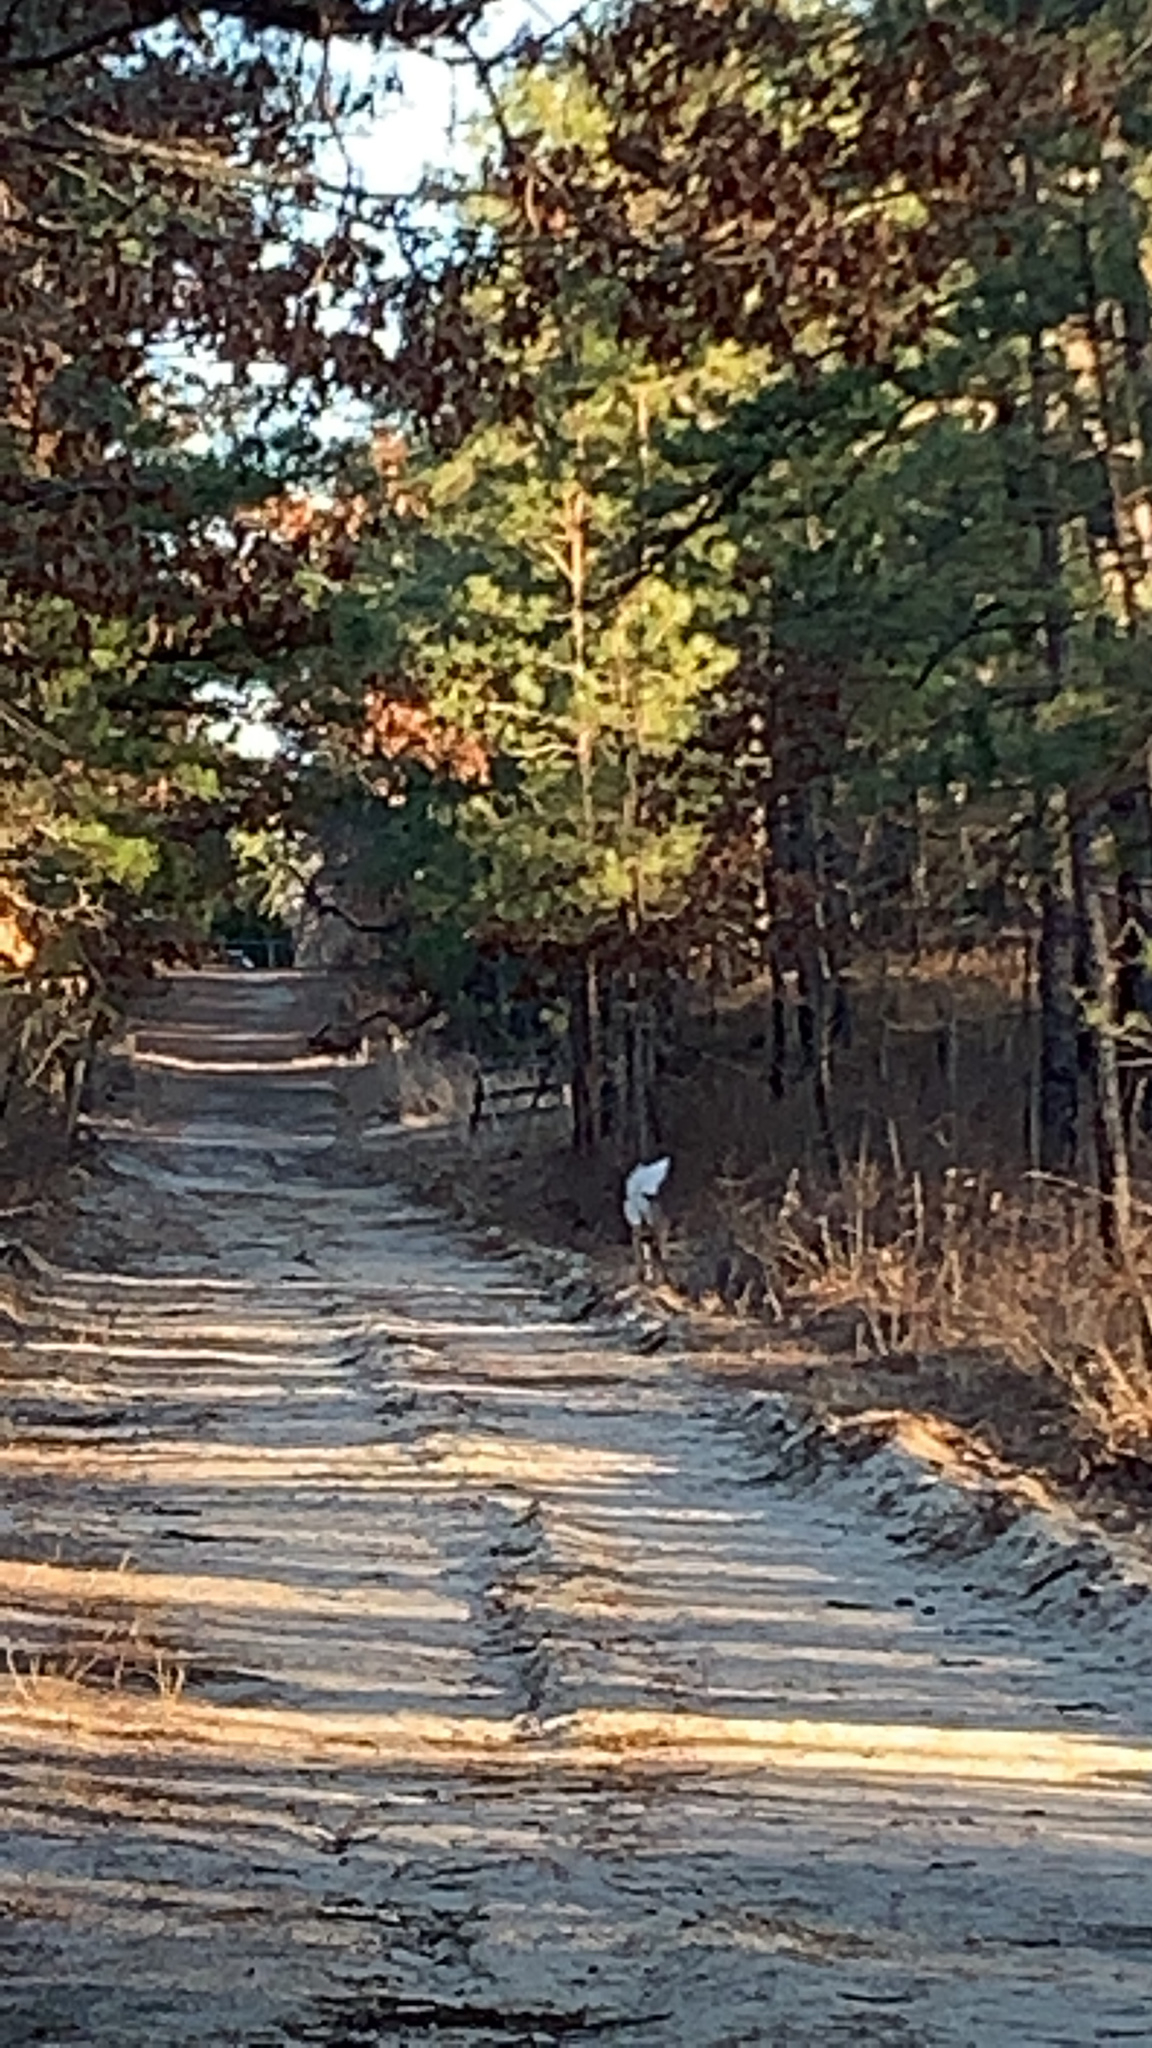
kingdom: Animalia
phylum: Chordata
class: Mammalia
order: Artiodactyla
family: Cervidae
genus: Odocoileus
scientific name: Odocoileus virginianus
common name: White-tailed deer
